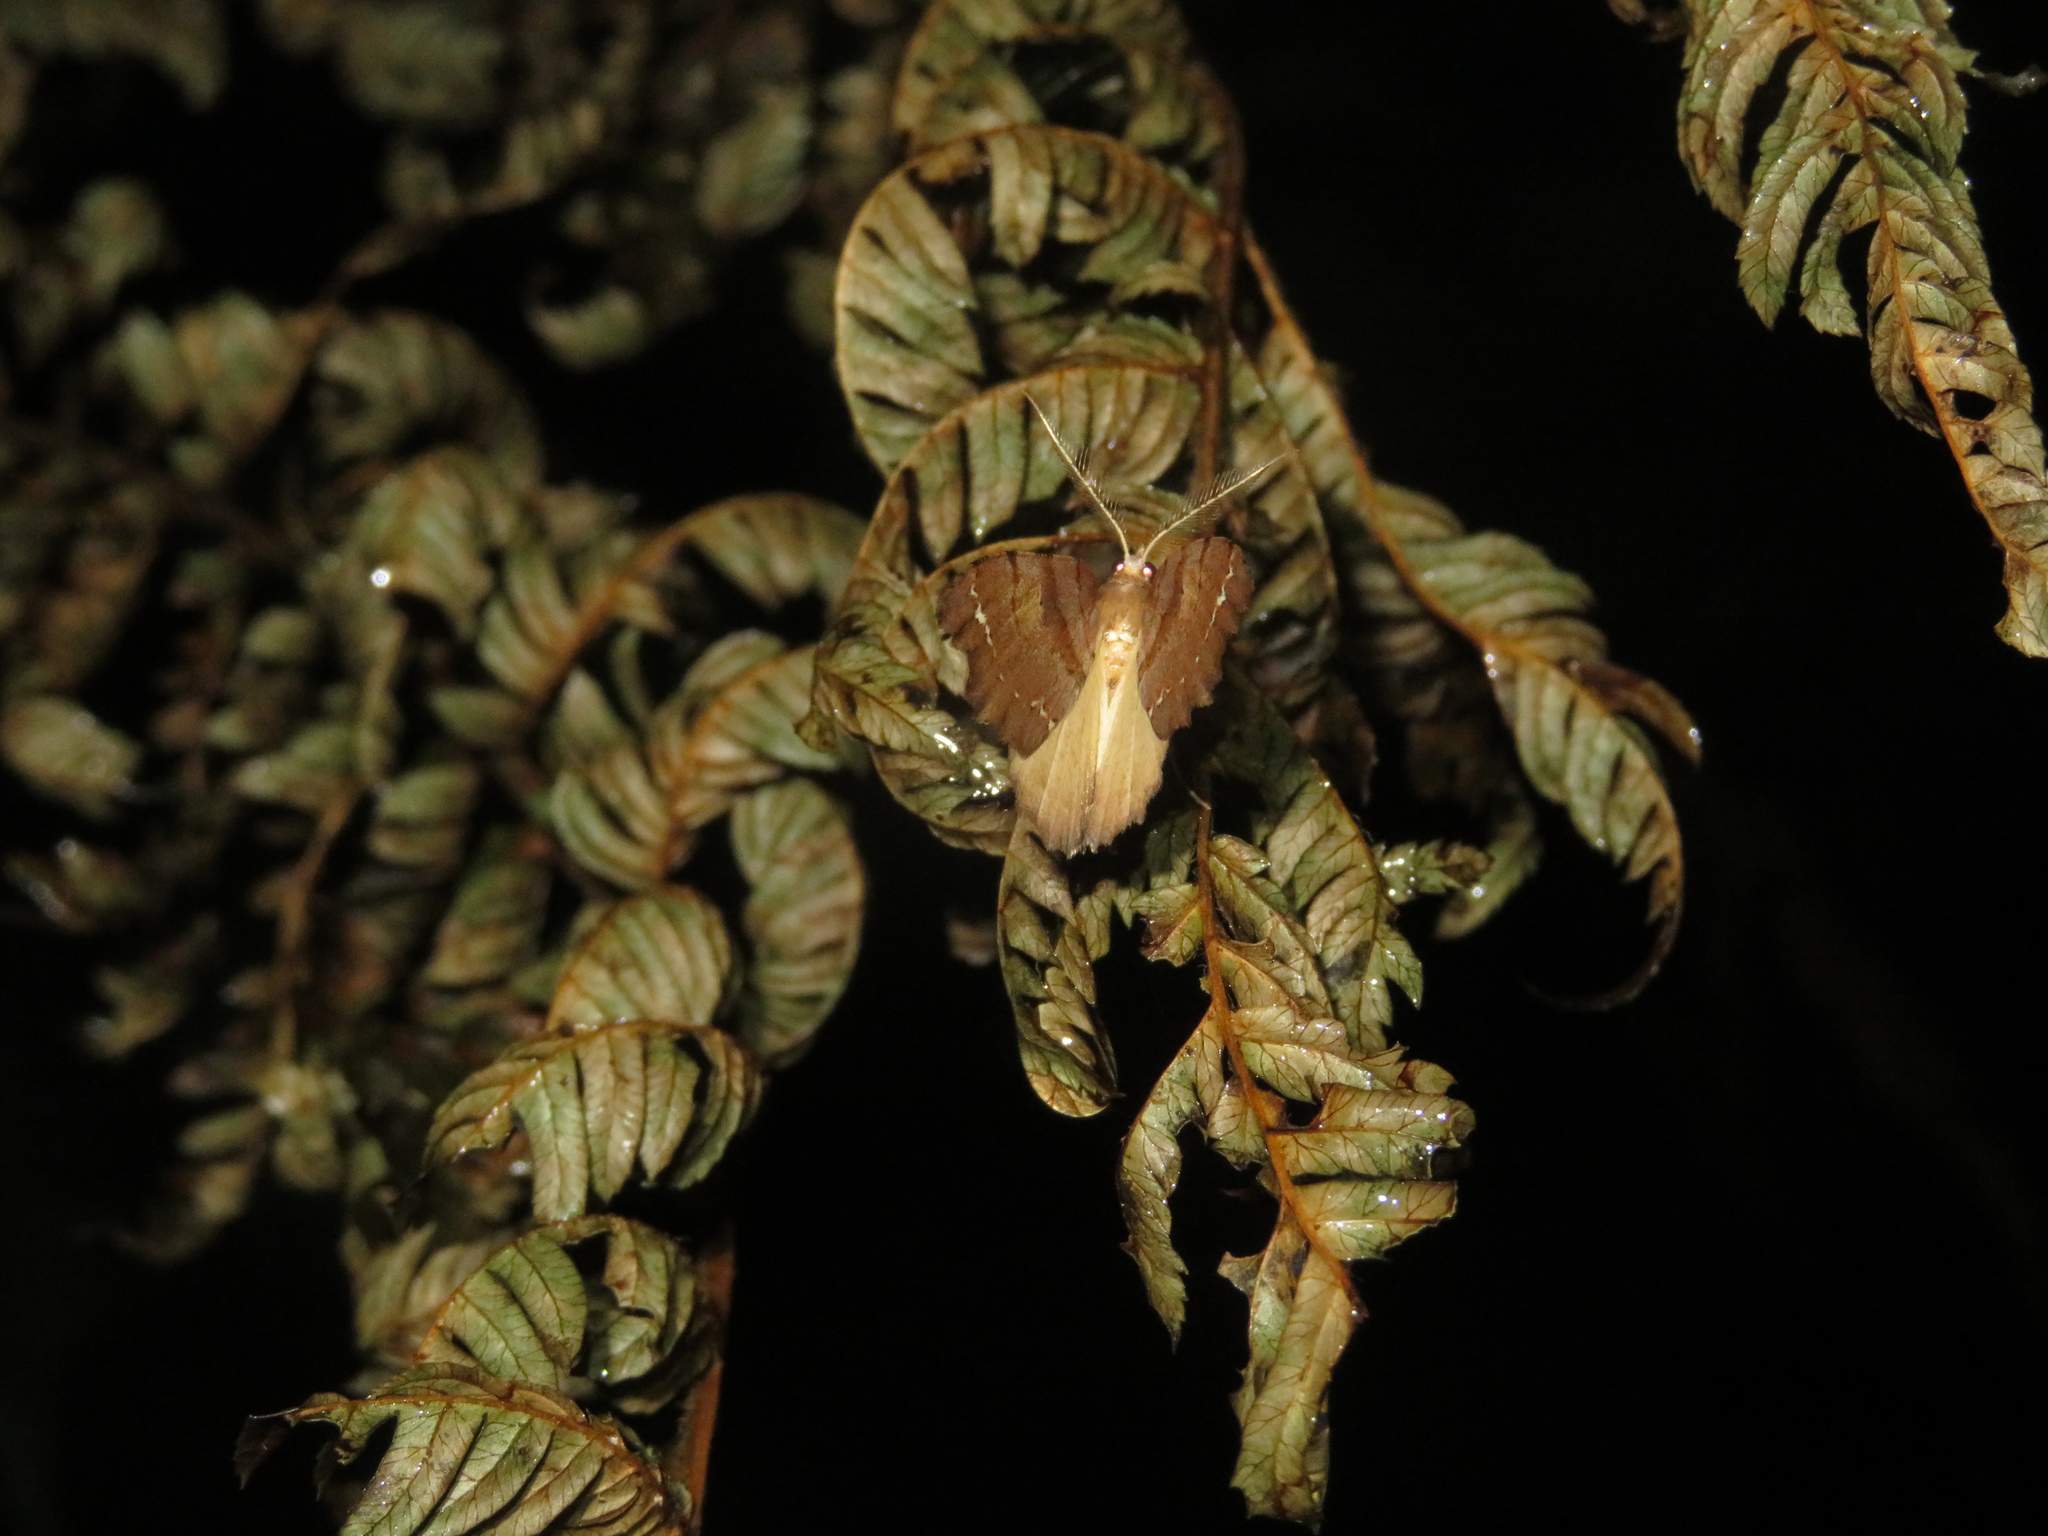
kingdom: Animalia
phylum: Arthropoda
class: Insecta
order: Lepidoptera
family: Geometridae
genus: Chalastra
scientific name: Chalastra pellurgata
